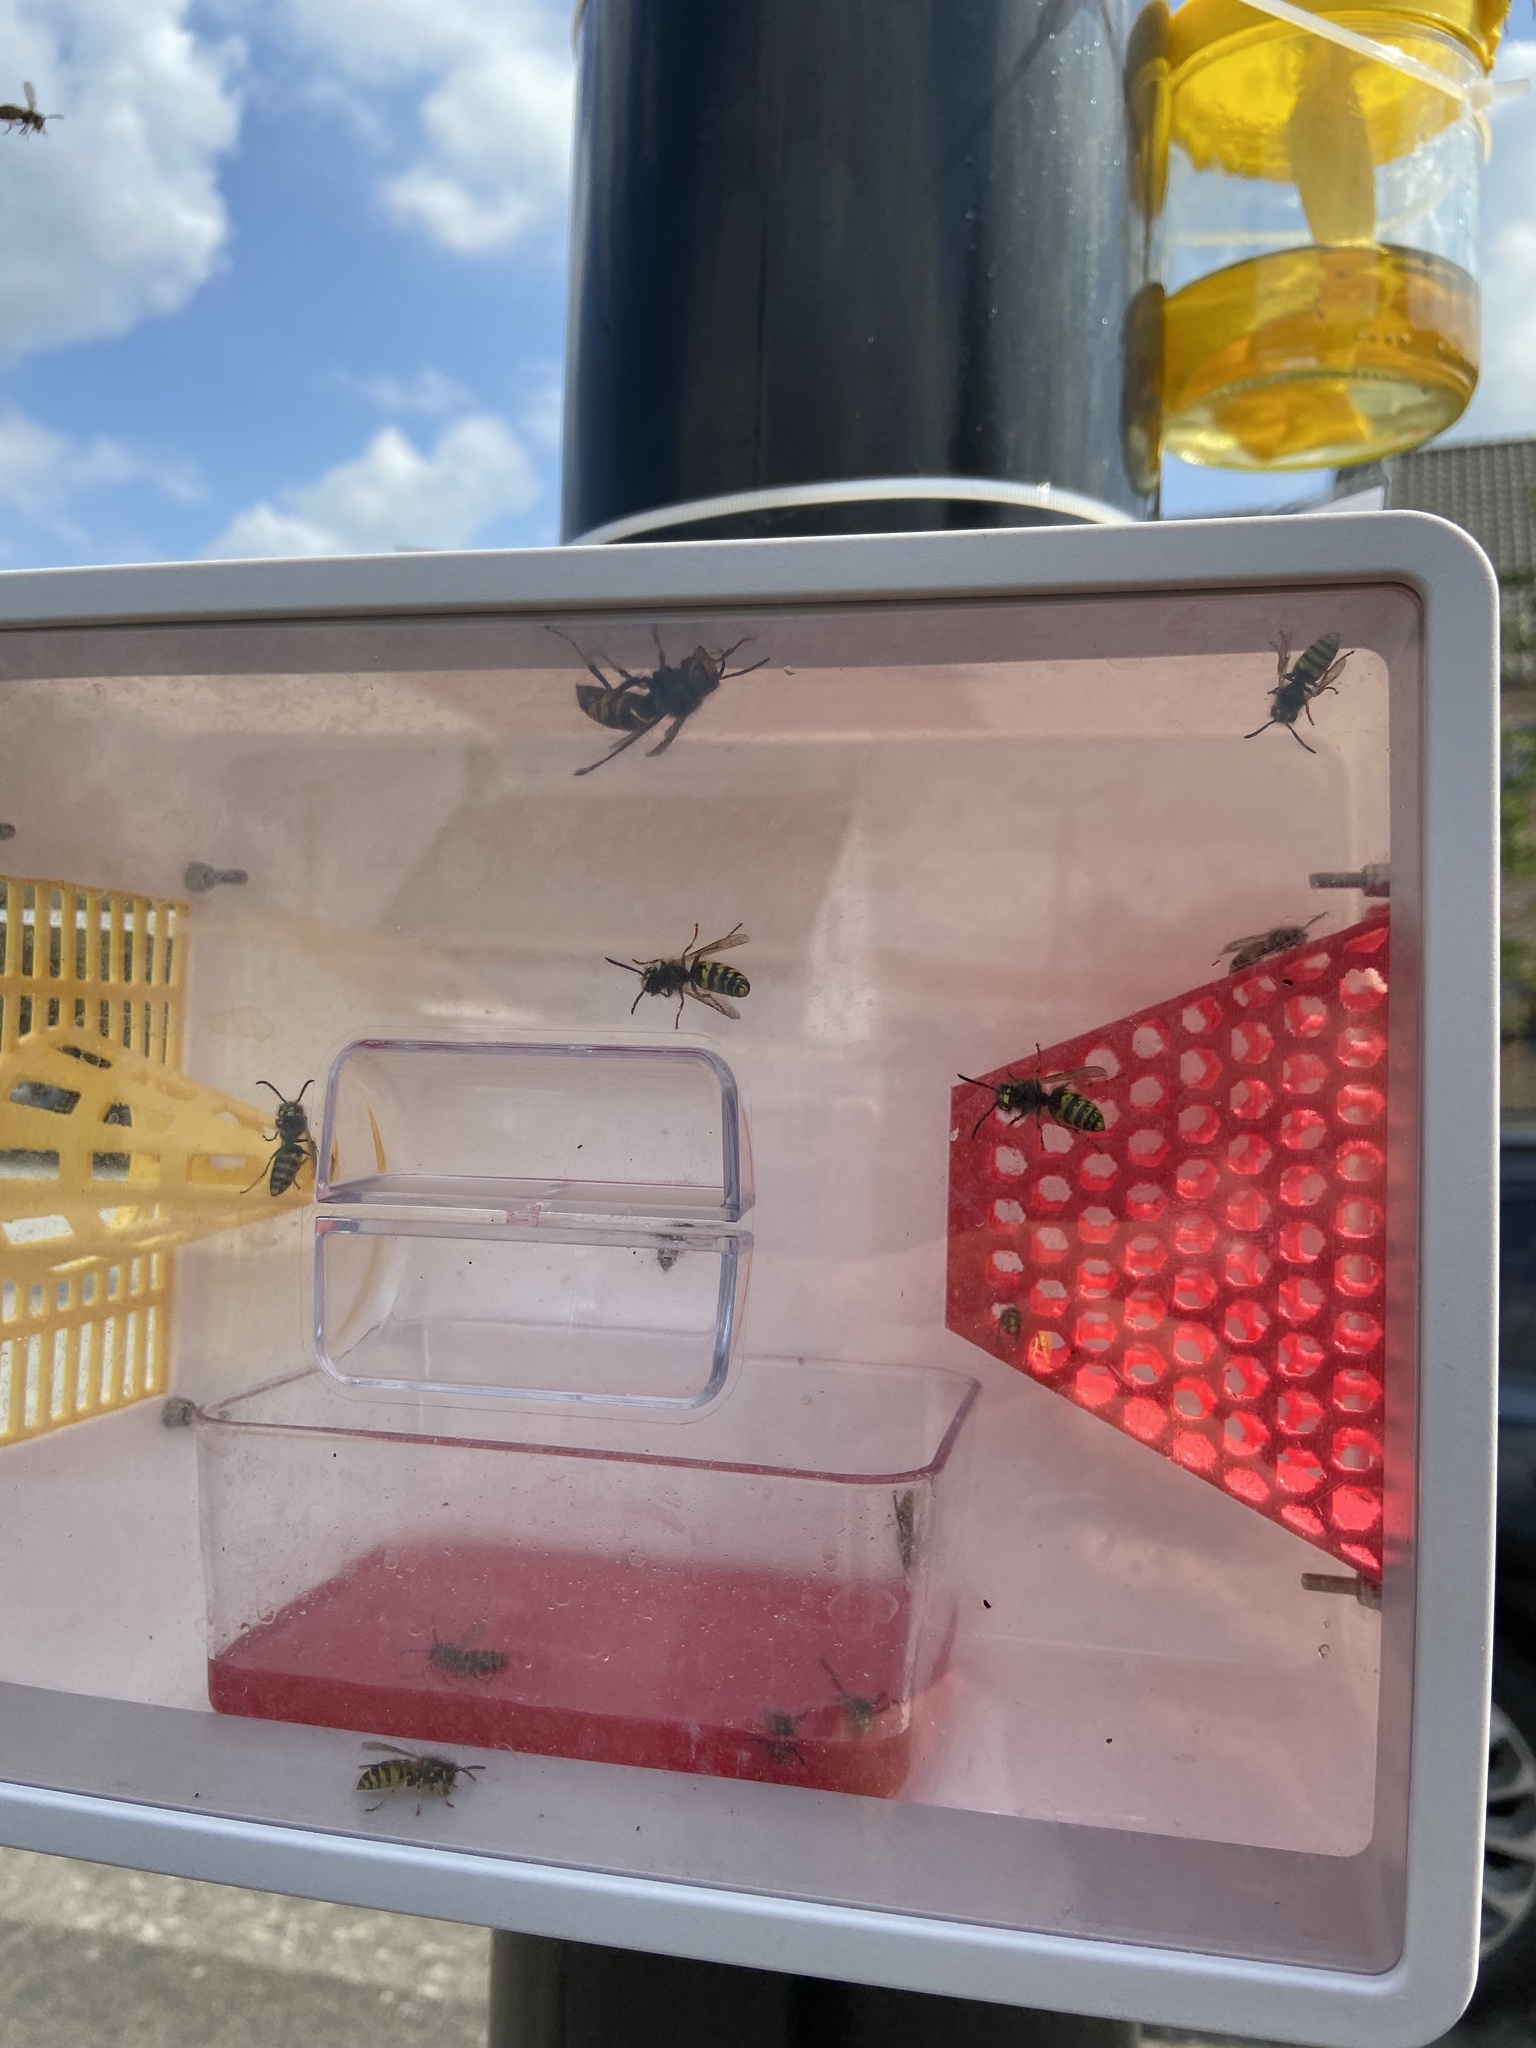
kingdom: Animalia
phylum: Arthropoda
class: Insecta
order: Hymenoptera
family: Vespidae
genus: Vespa
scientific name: Vespa velutina
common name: Asian hornet
